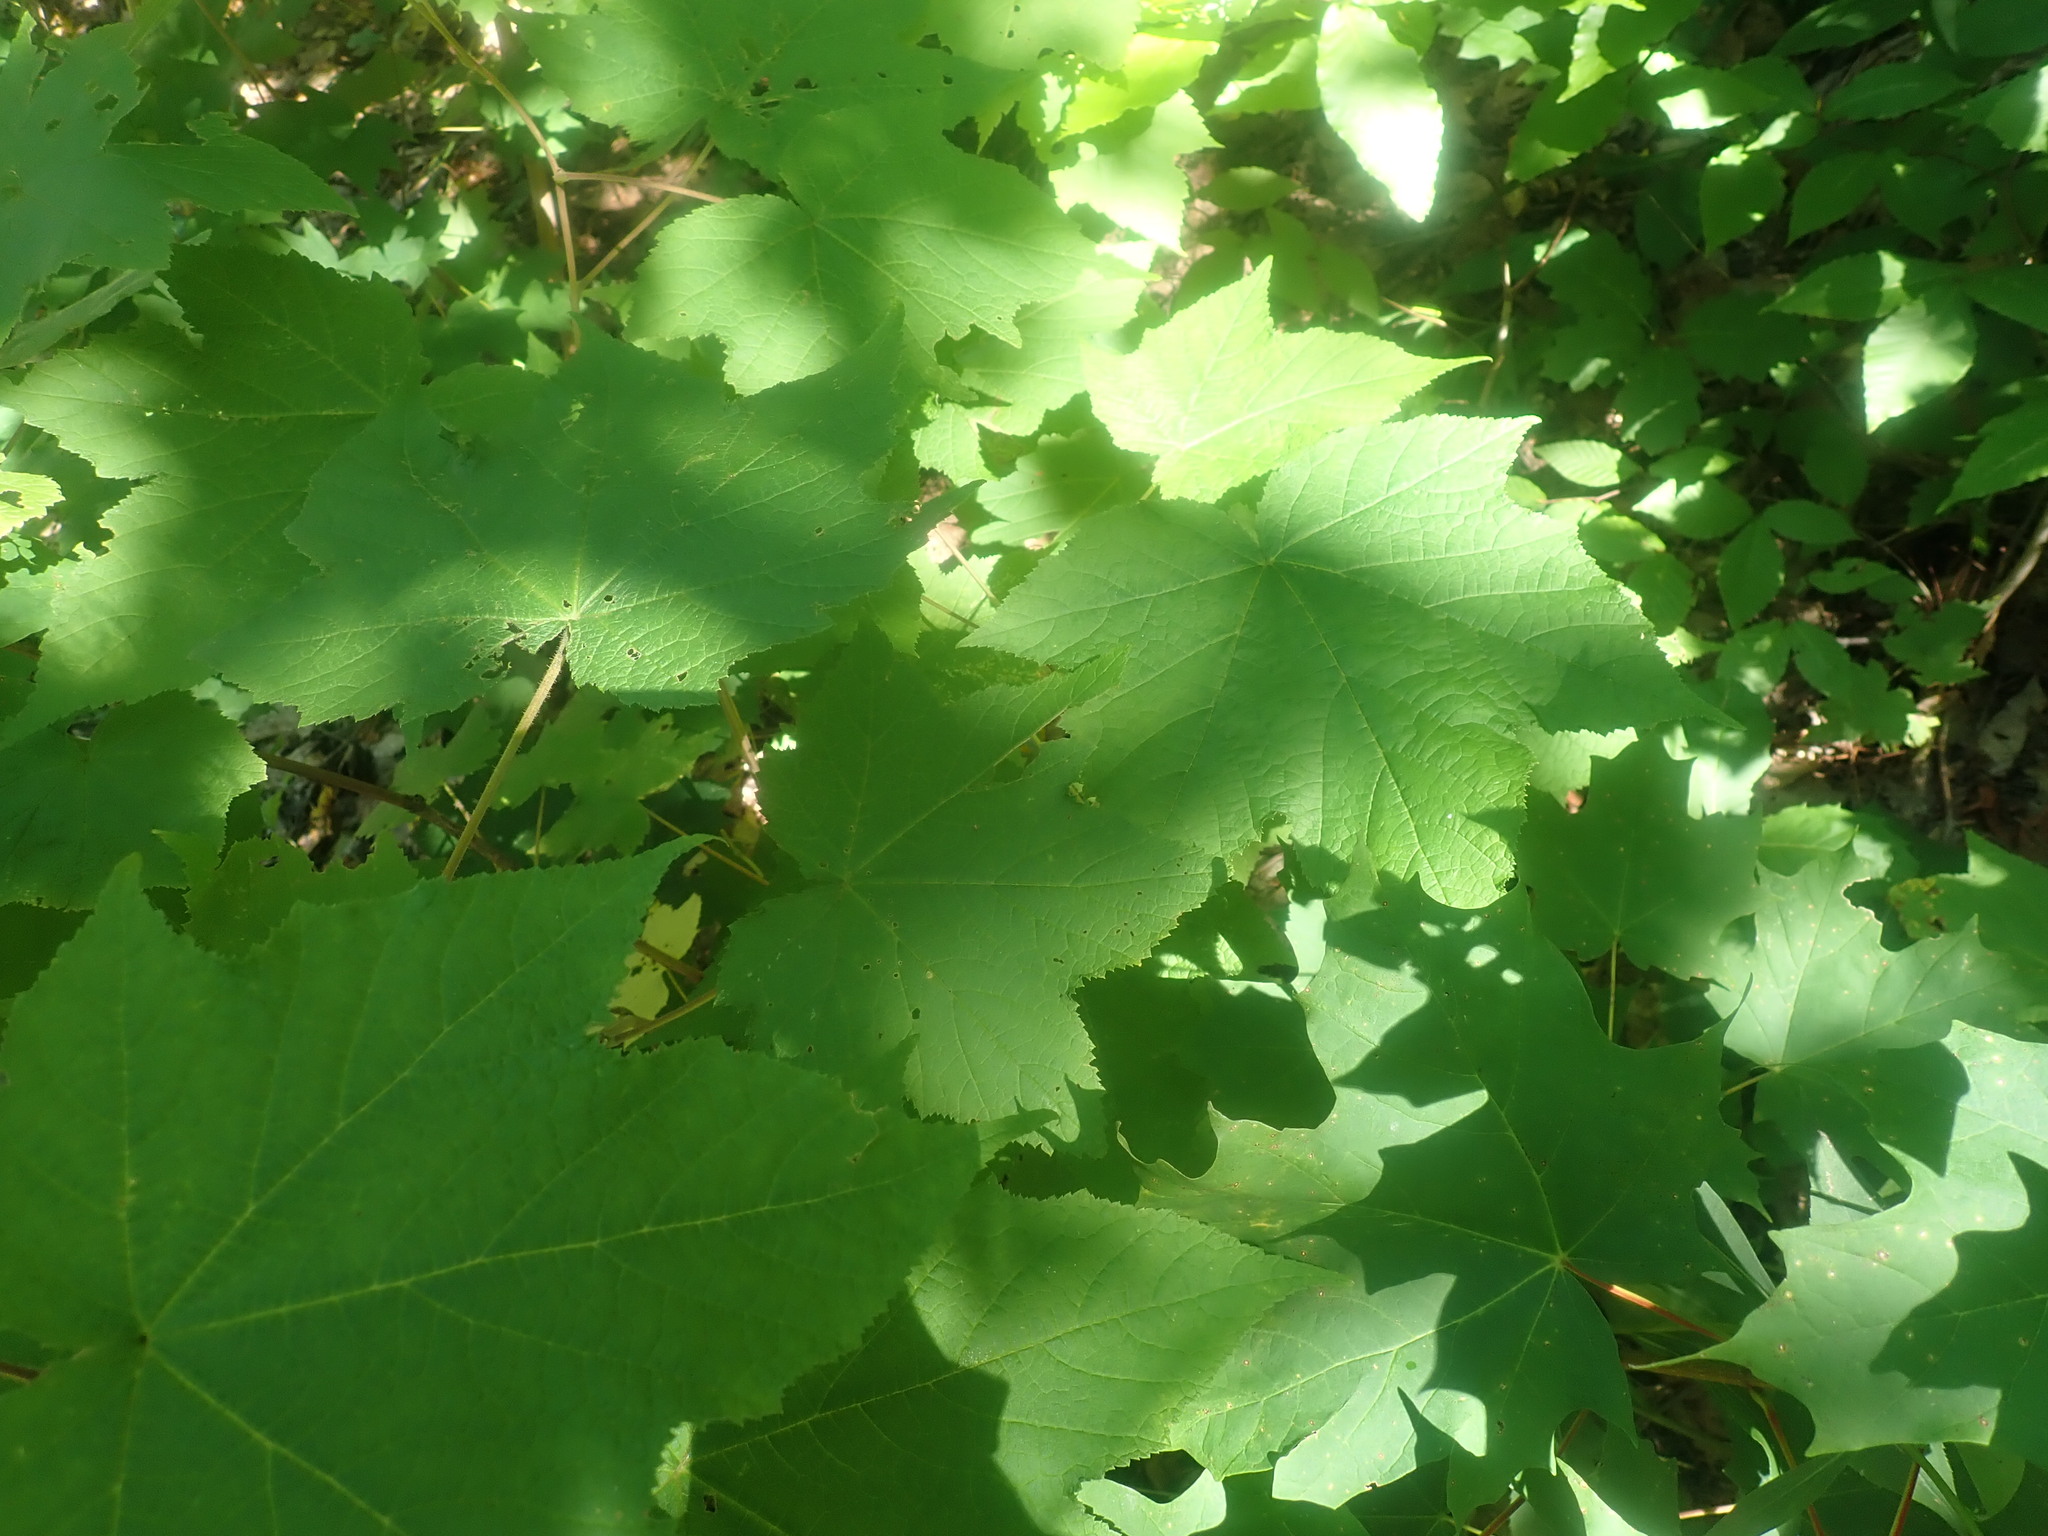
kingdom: Plantae
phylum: Tracheophyta
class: Magnoliopsida
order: Rosales
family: Rosaceae
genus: Rubus
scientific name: Rubus odoratus
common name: Purple-flowered raspberry
